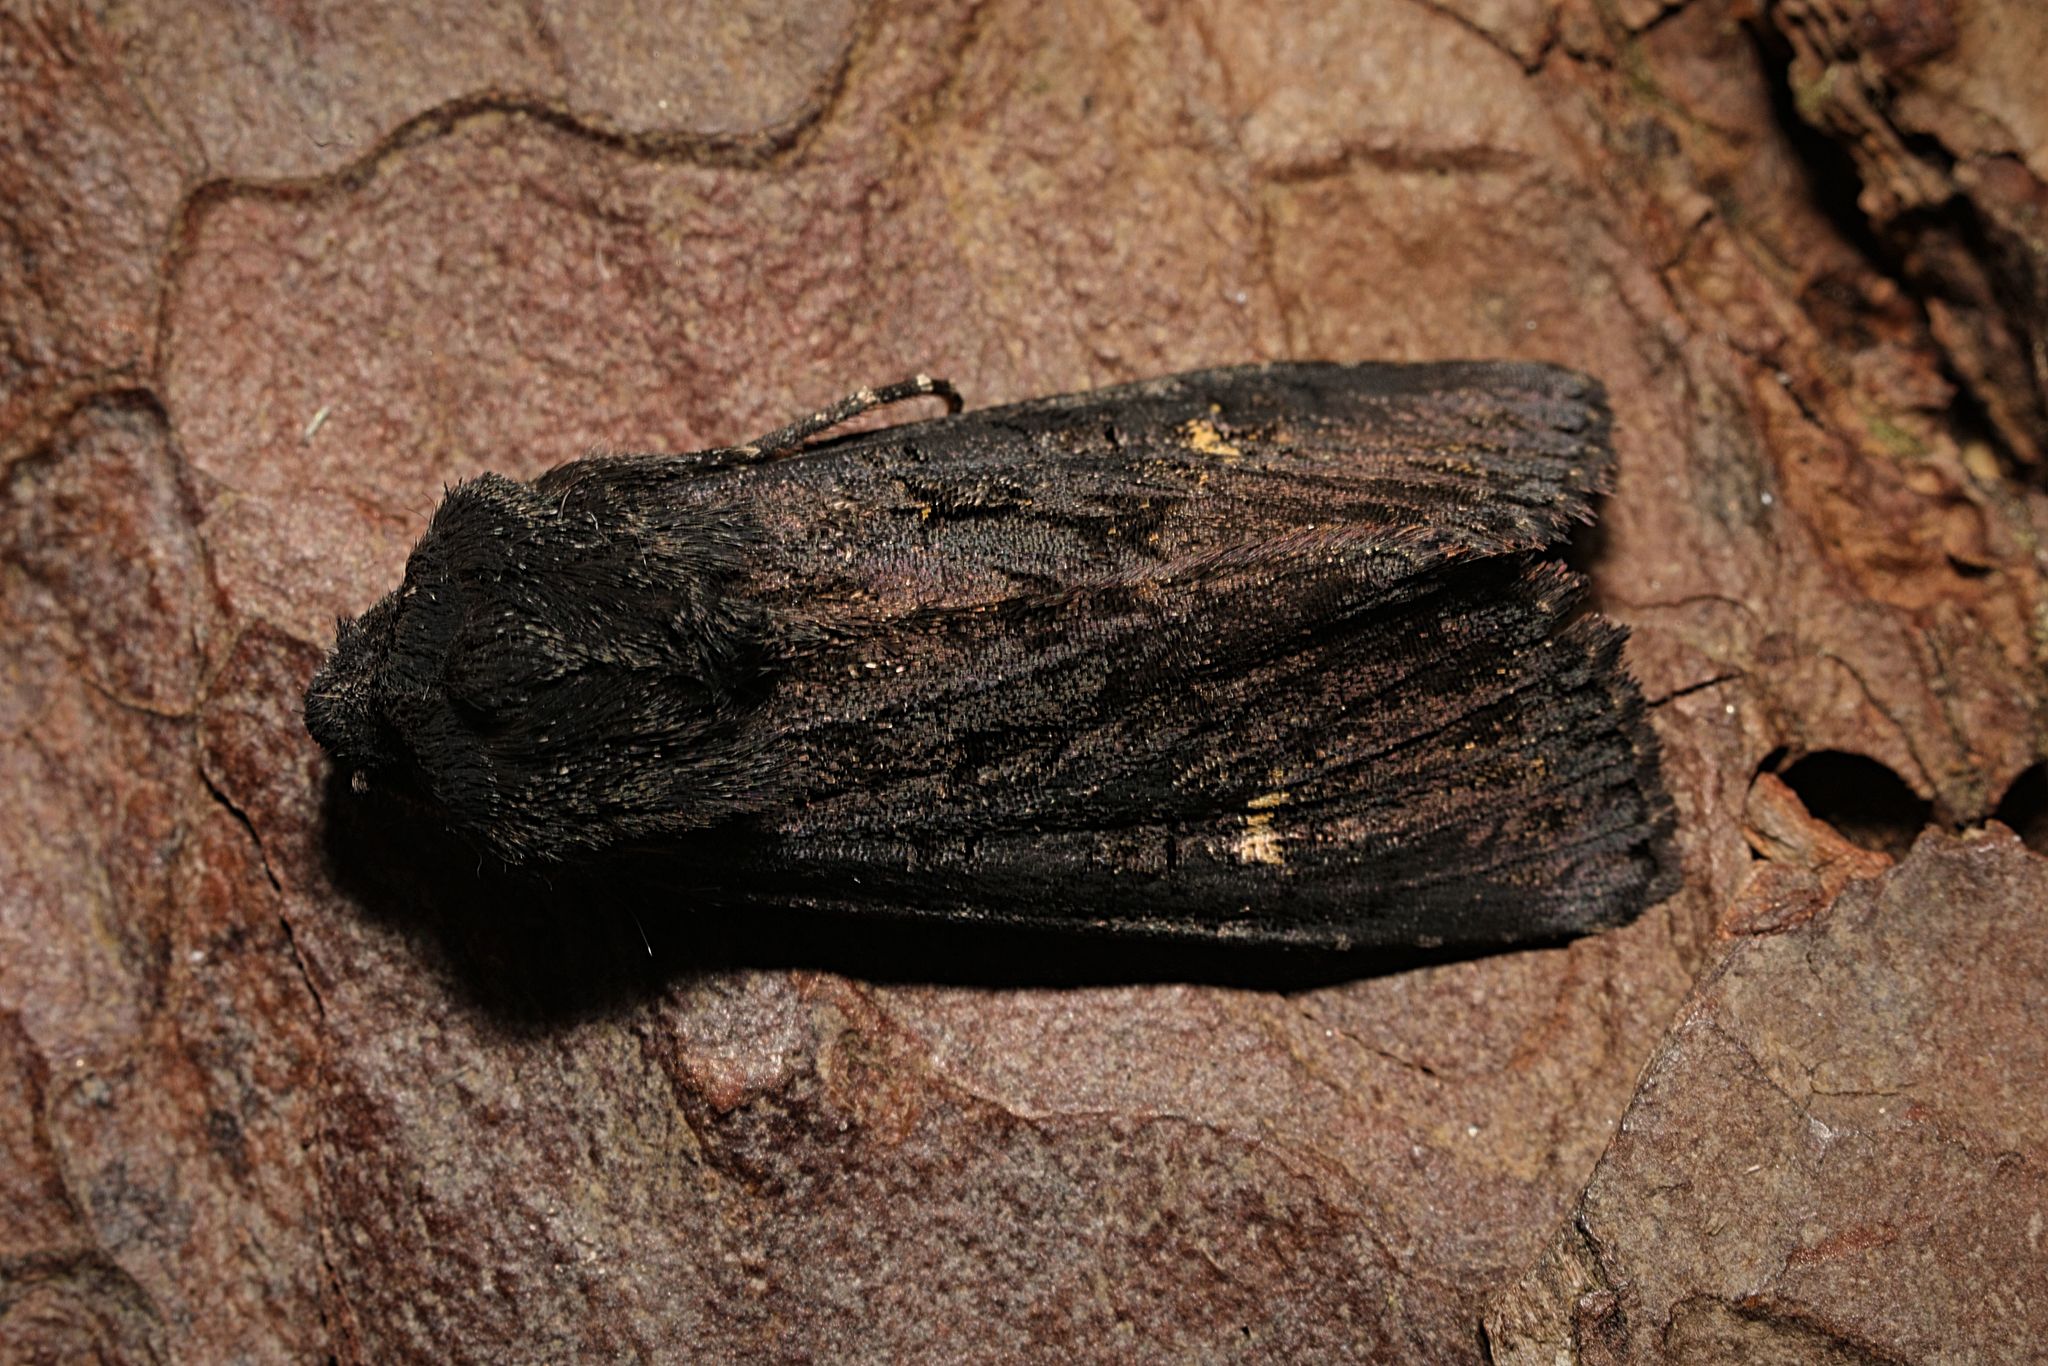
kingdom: Animalia
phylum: Arthropoda
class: Insecta
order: Lepidoptera
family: Noctuidae
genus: Aporophyla
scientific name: Aporophyla nigra
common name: Black rustic
